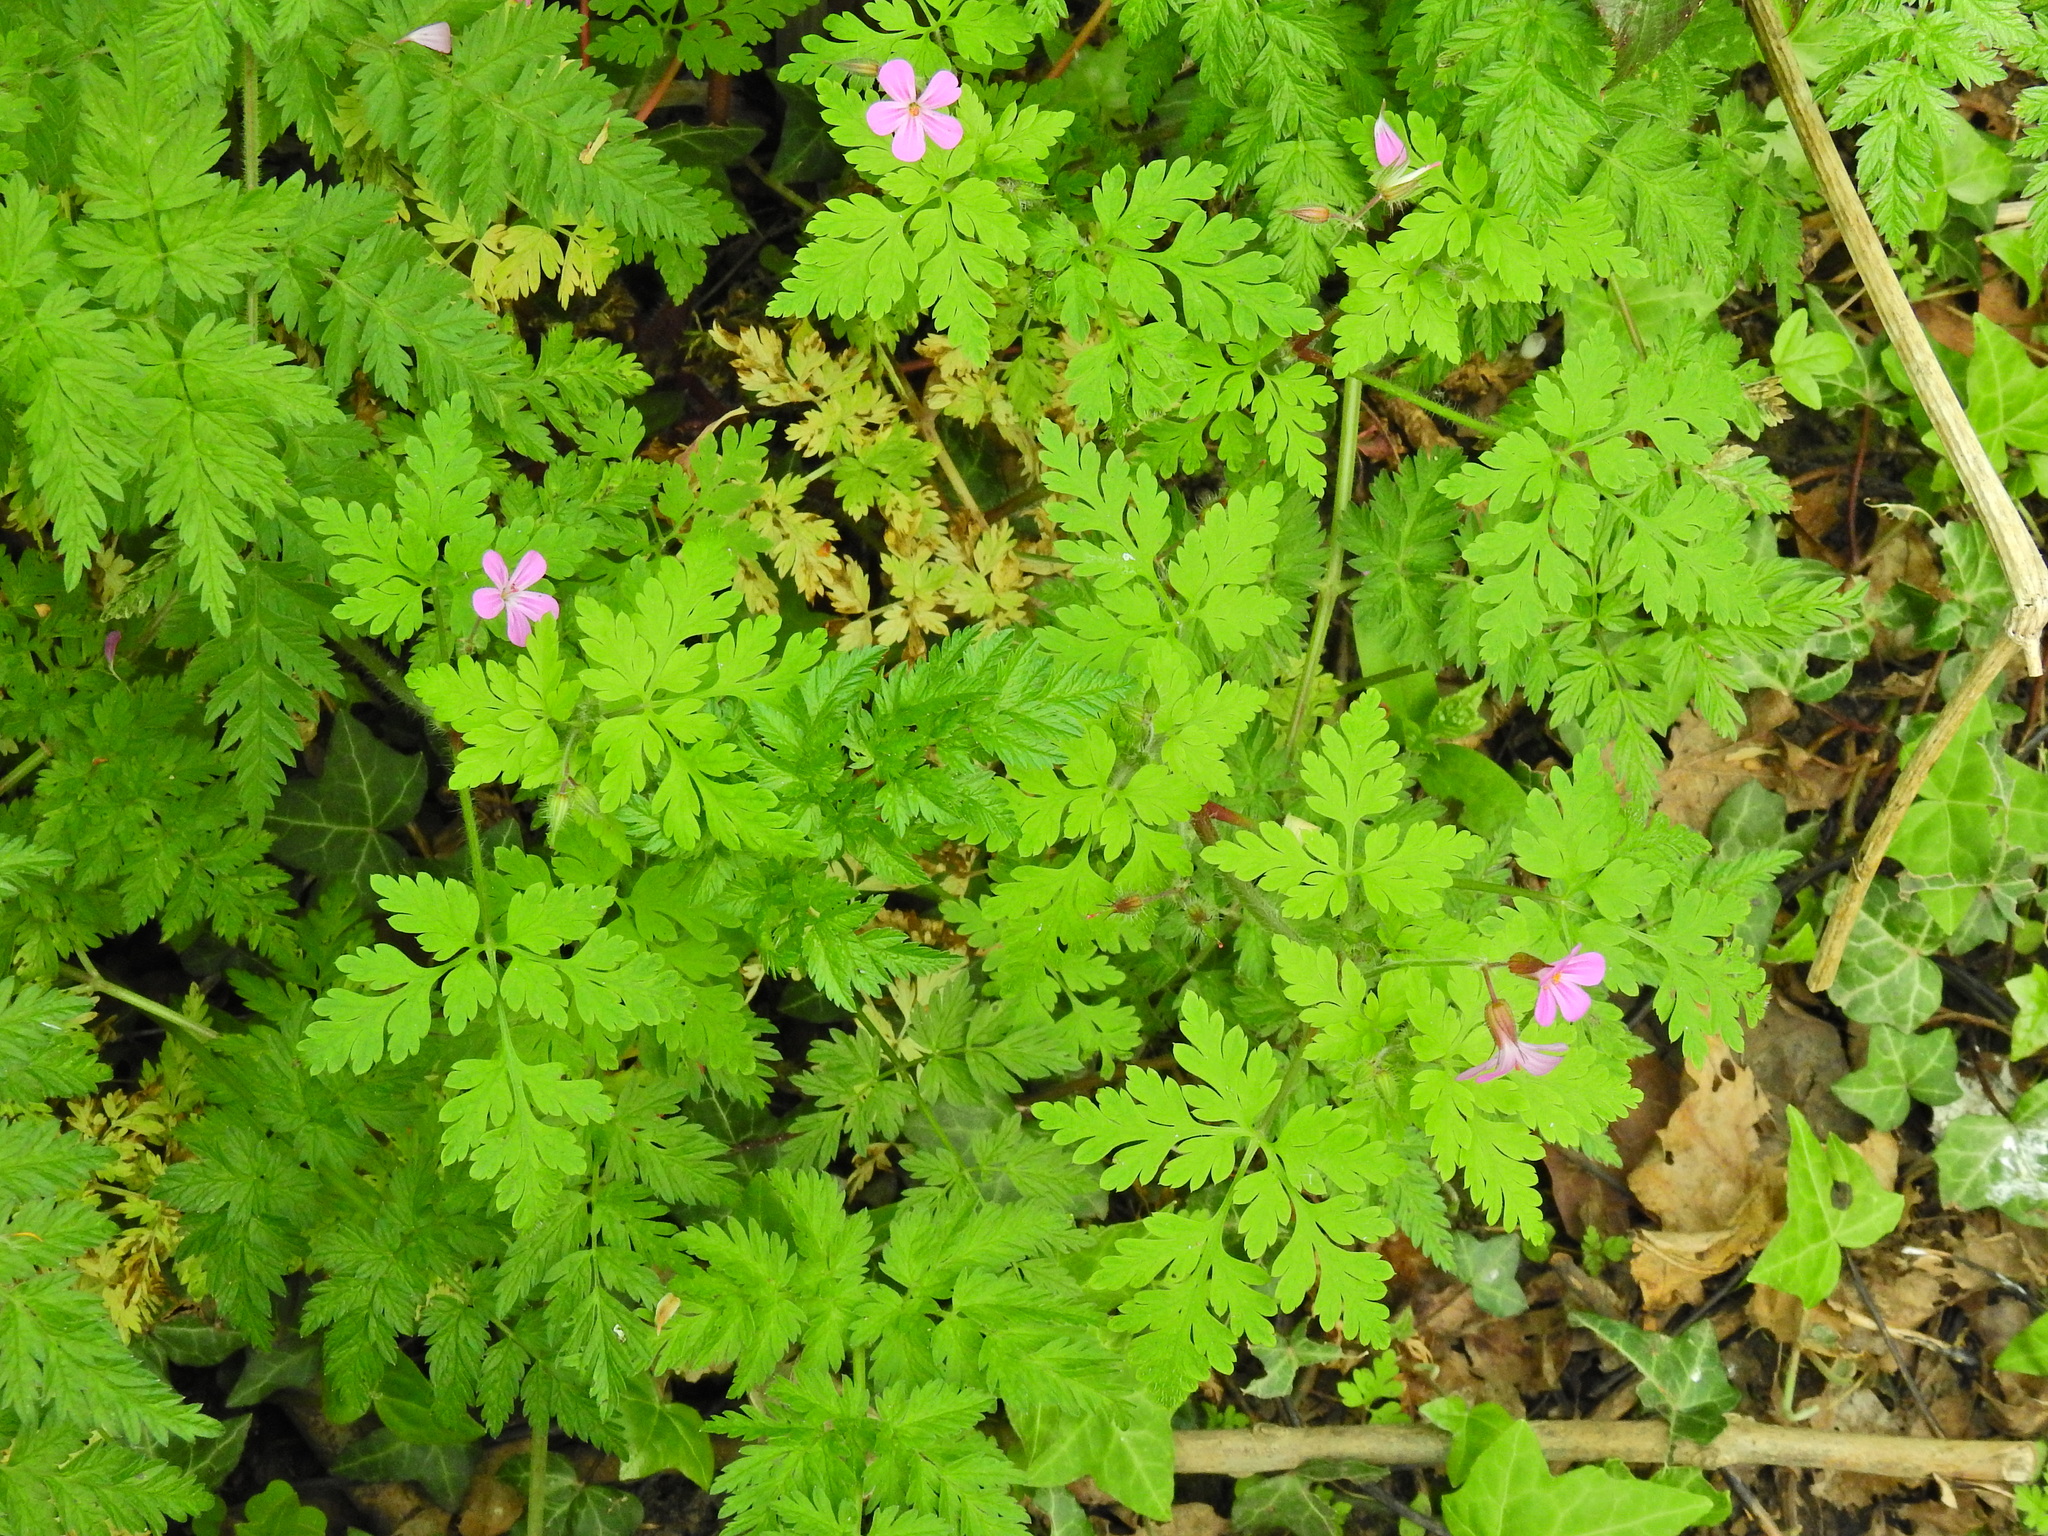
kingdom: Plantae
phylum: Tracheophyta
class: Magnoliopsida
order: Geraniales
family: Geraniaceae
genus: Geranium
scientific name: Geranium robertianum
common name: Herb-robert
